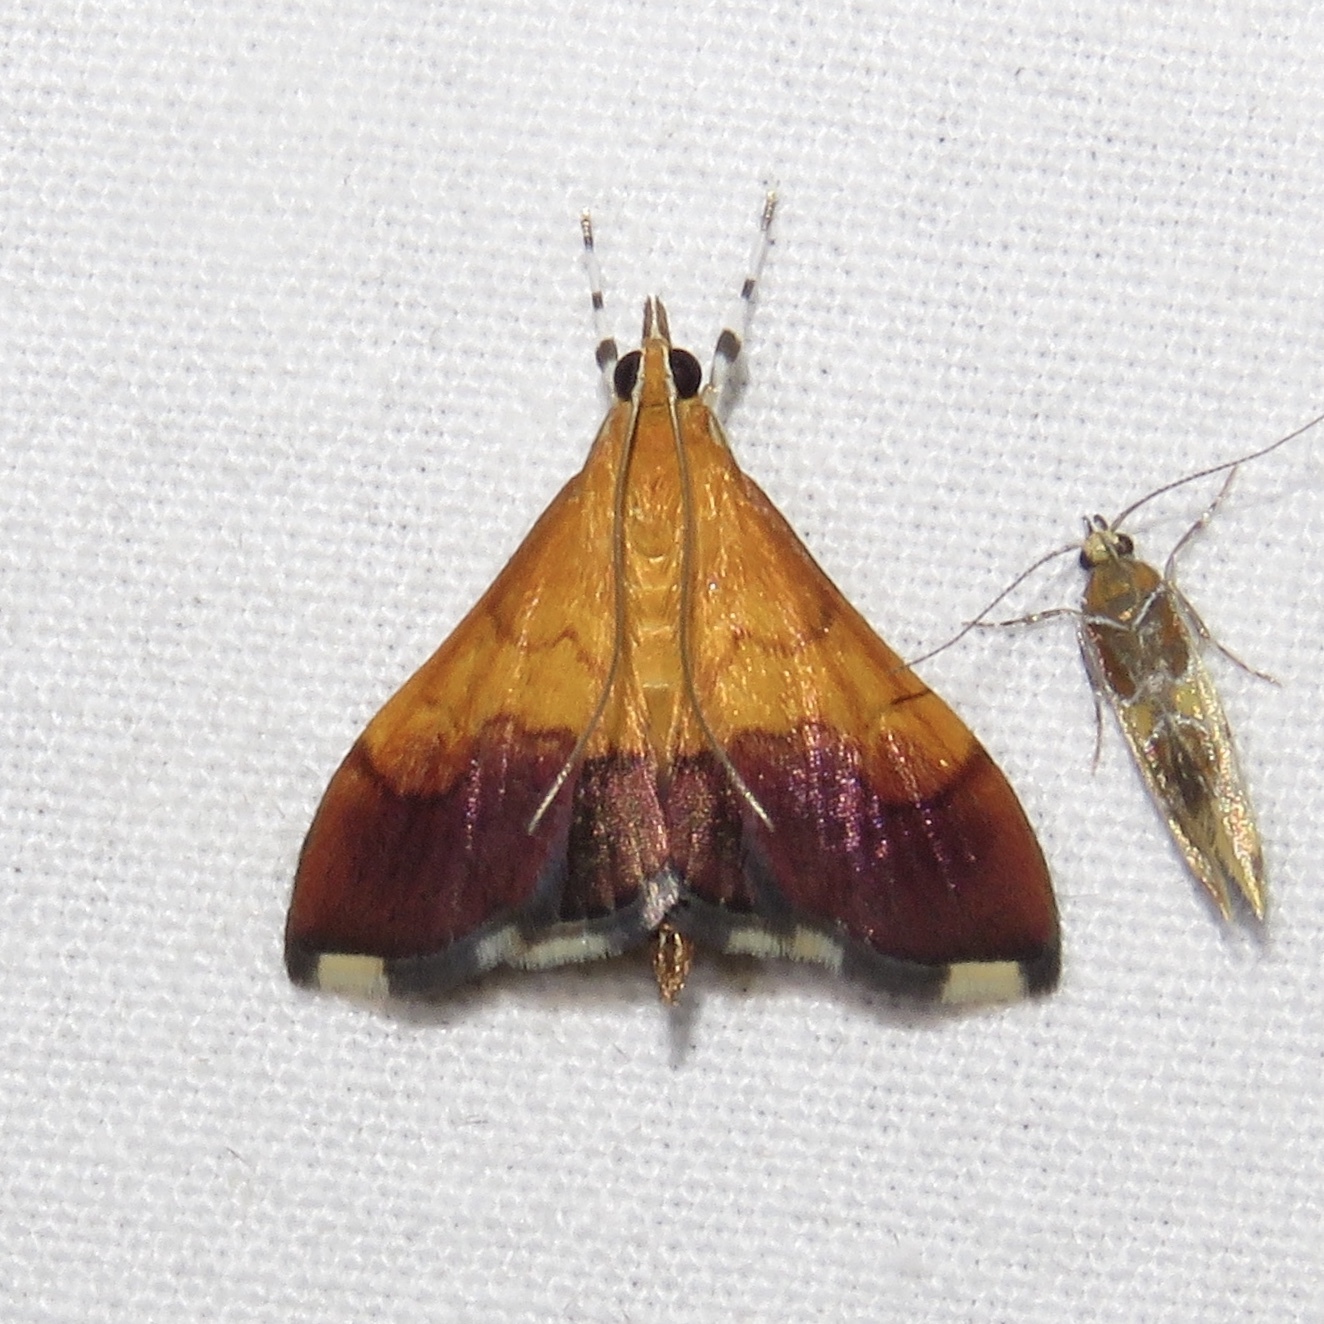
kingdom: Animalia
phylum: Arthropoda
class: Insecta
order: Lepidoptera
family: Crambidae
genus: Pyrausta
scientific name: Pyrausta bicoloralis
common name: Bicolored pyrausta moth
